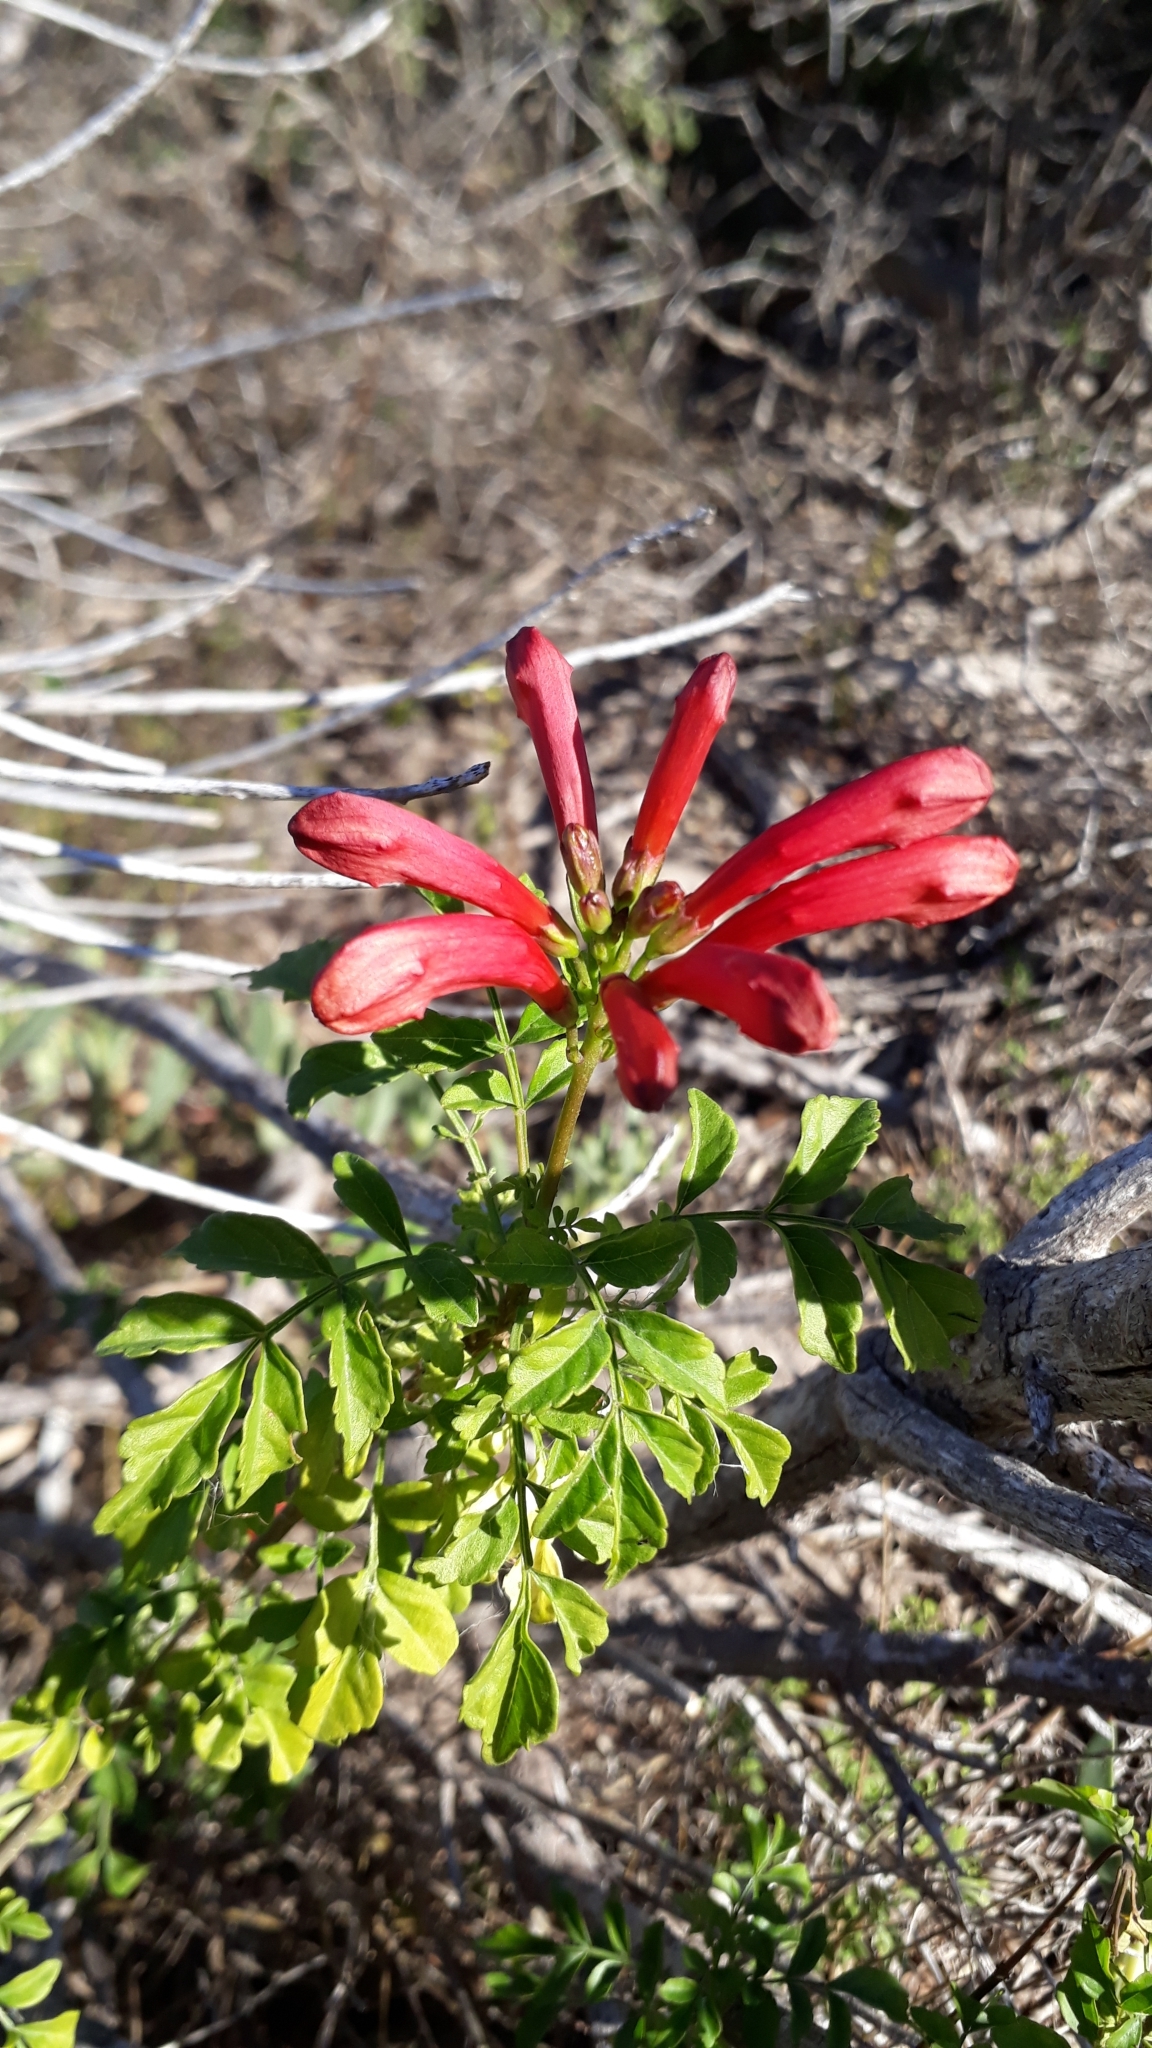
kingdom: Plantae
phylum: Tracheophyta
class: Magnoliopsida
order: Lamiales
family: Bignoniaceae
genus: Tecomaria
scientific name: Tecomaria capensis
